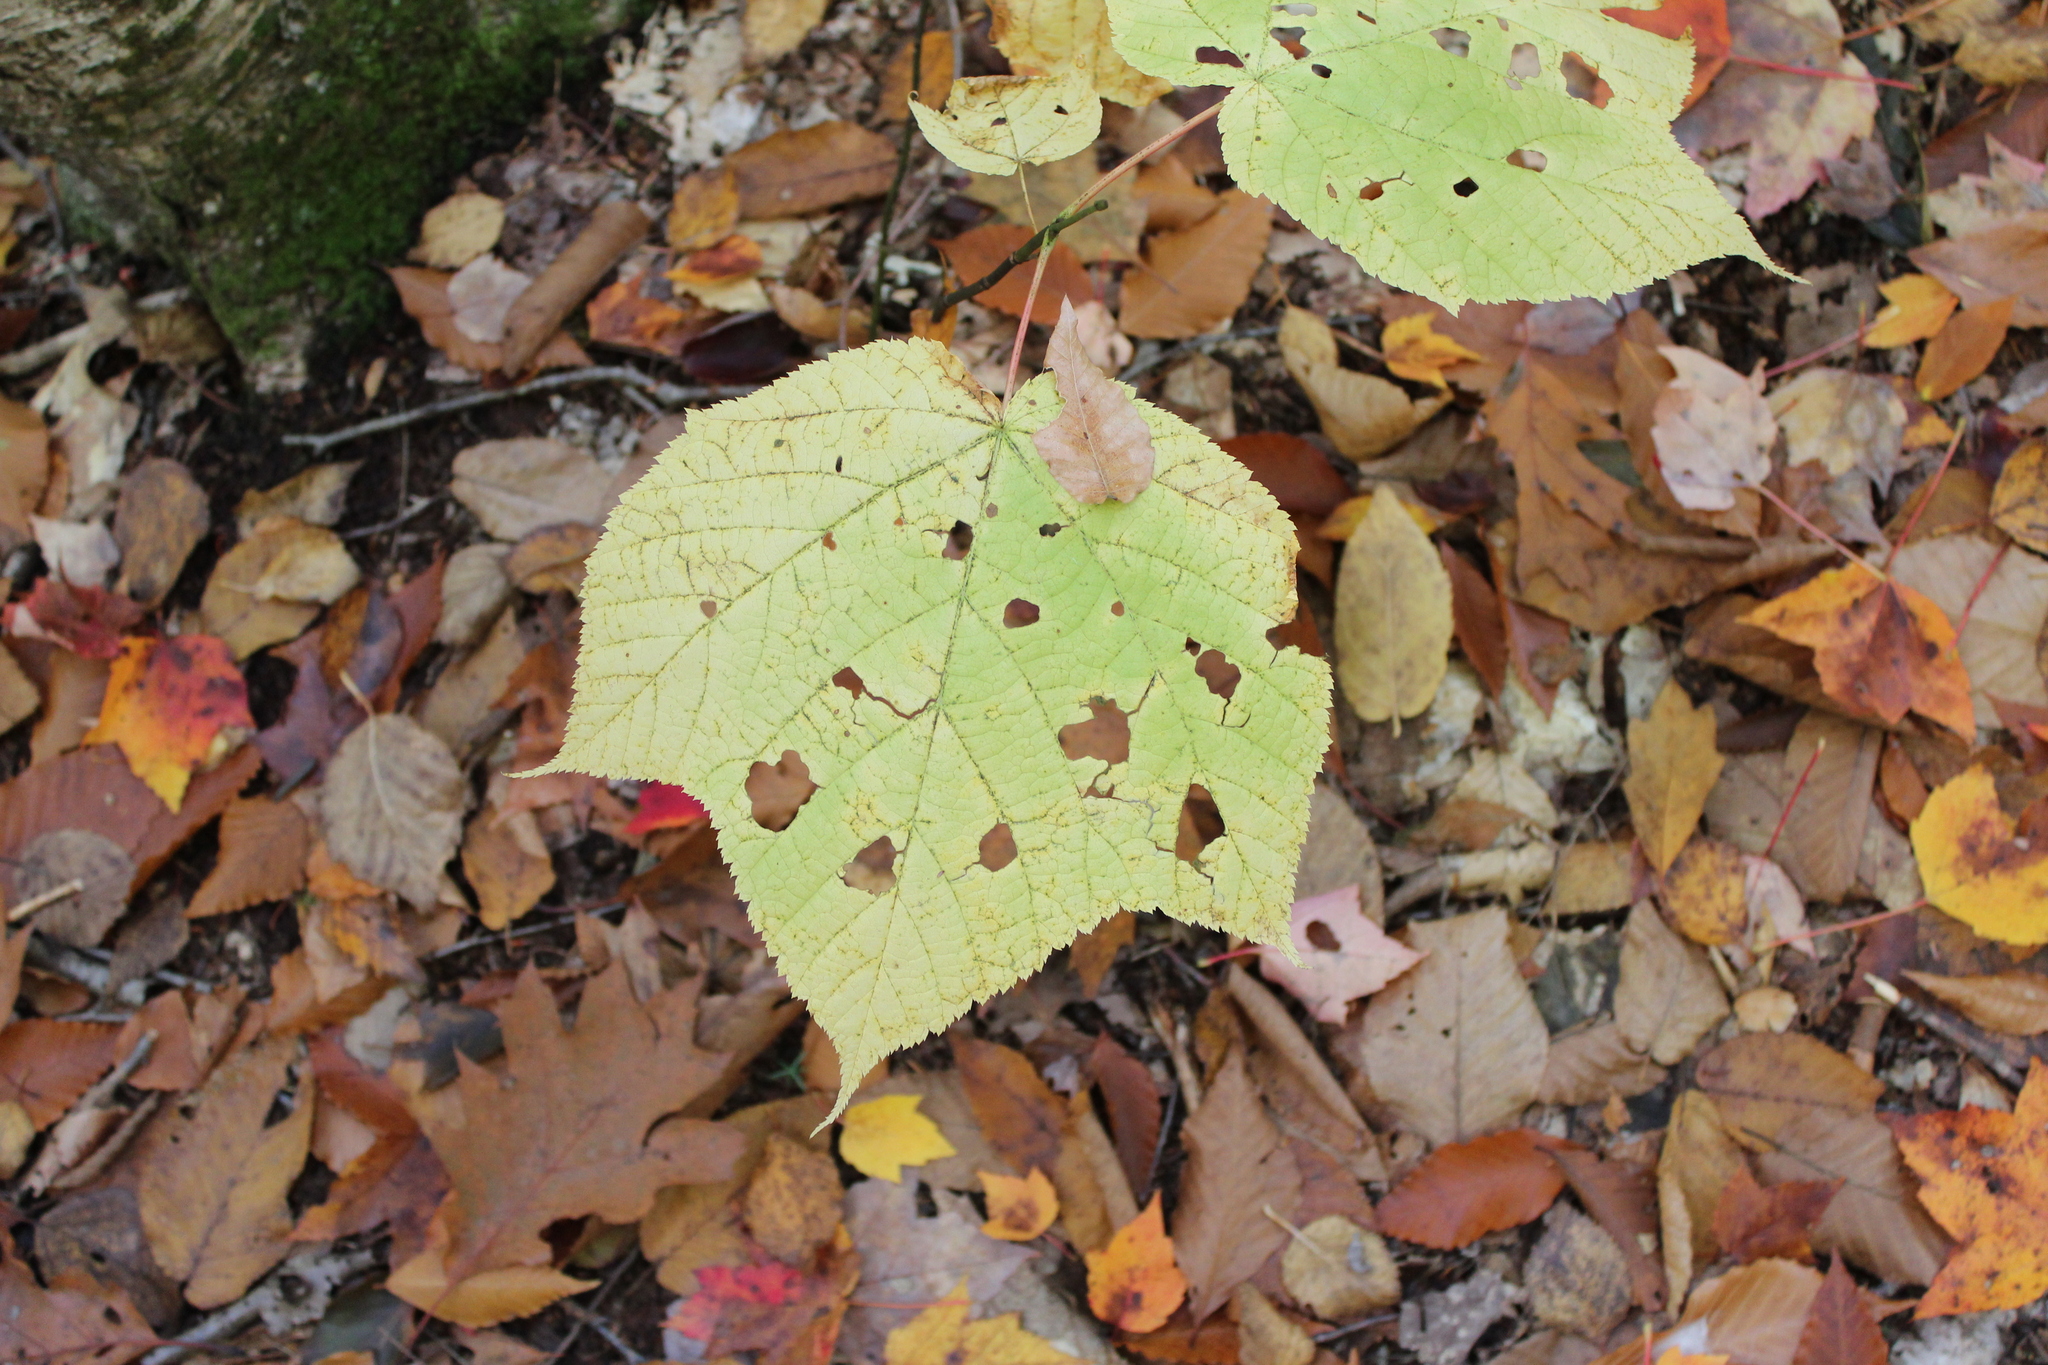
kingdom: Plantae
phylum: Tracheophyta
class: Magnoliopsida
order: Sapindales
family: Sapindaceae
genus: Acer
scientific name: Acer pensylvanicum
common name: Moosewood
